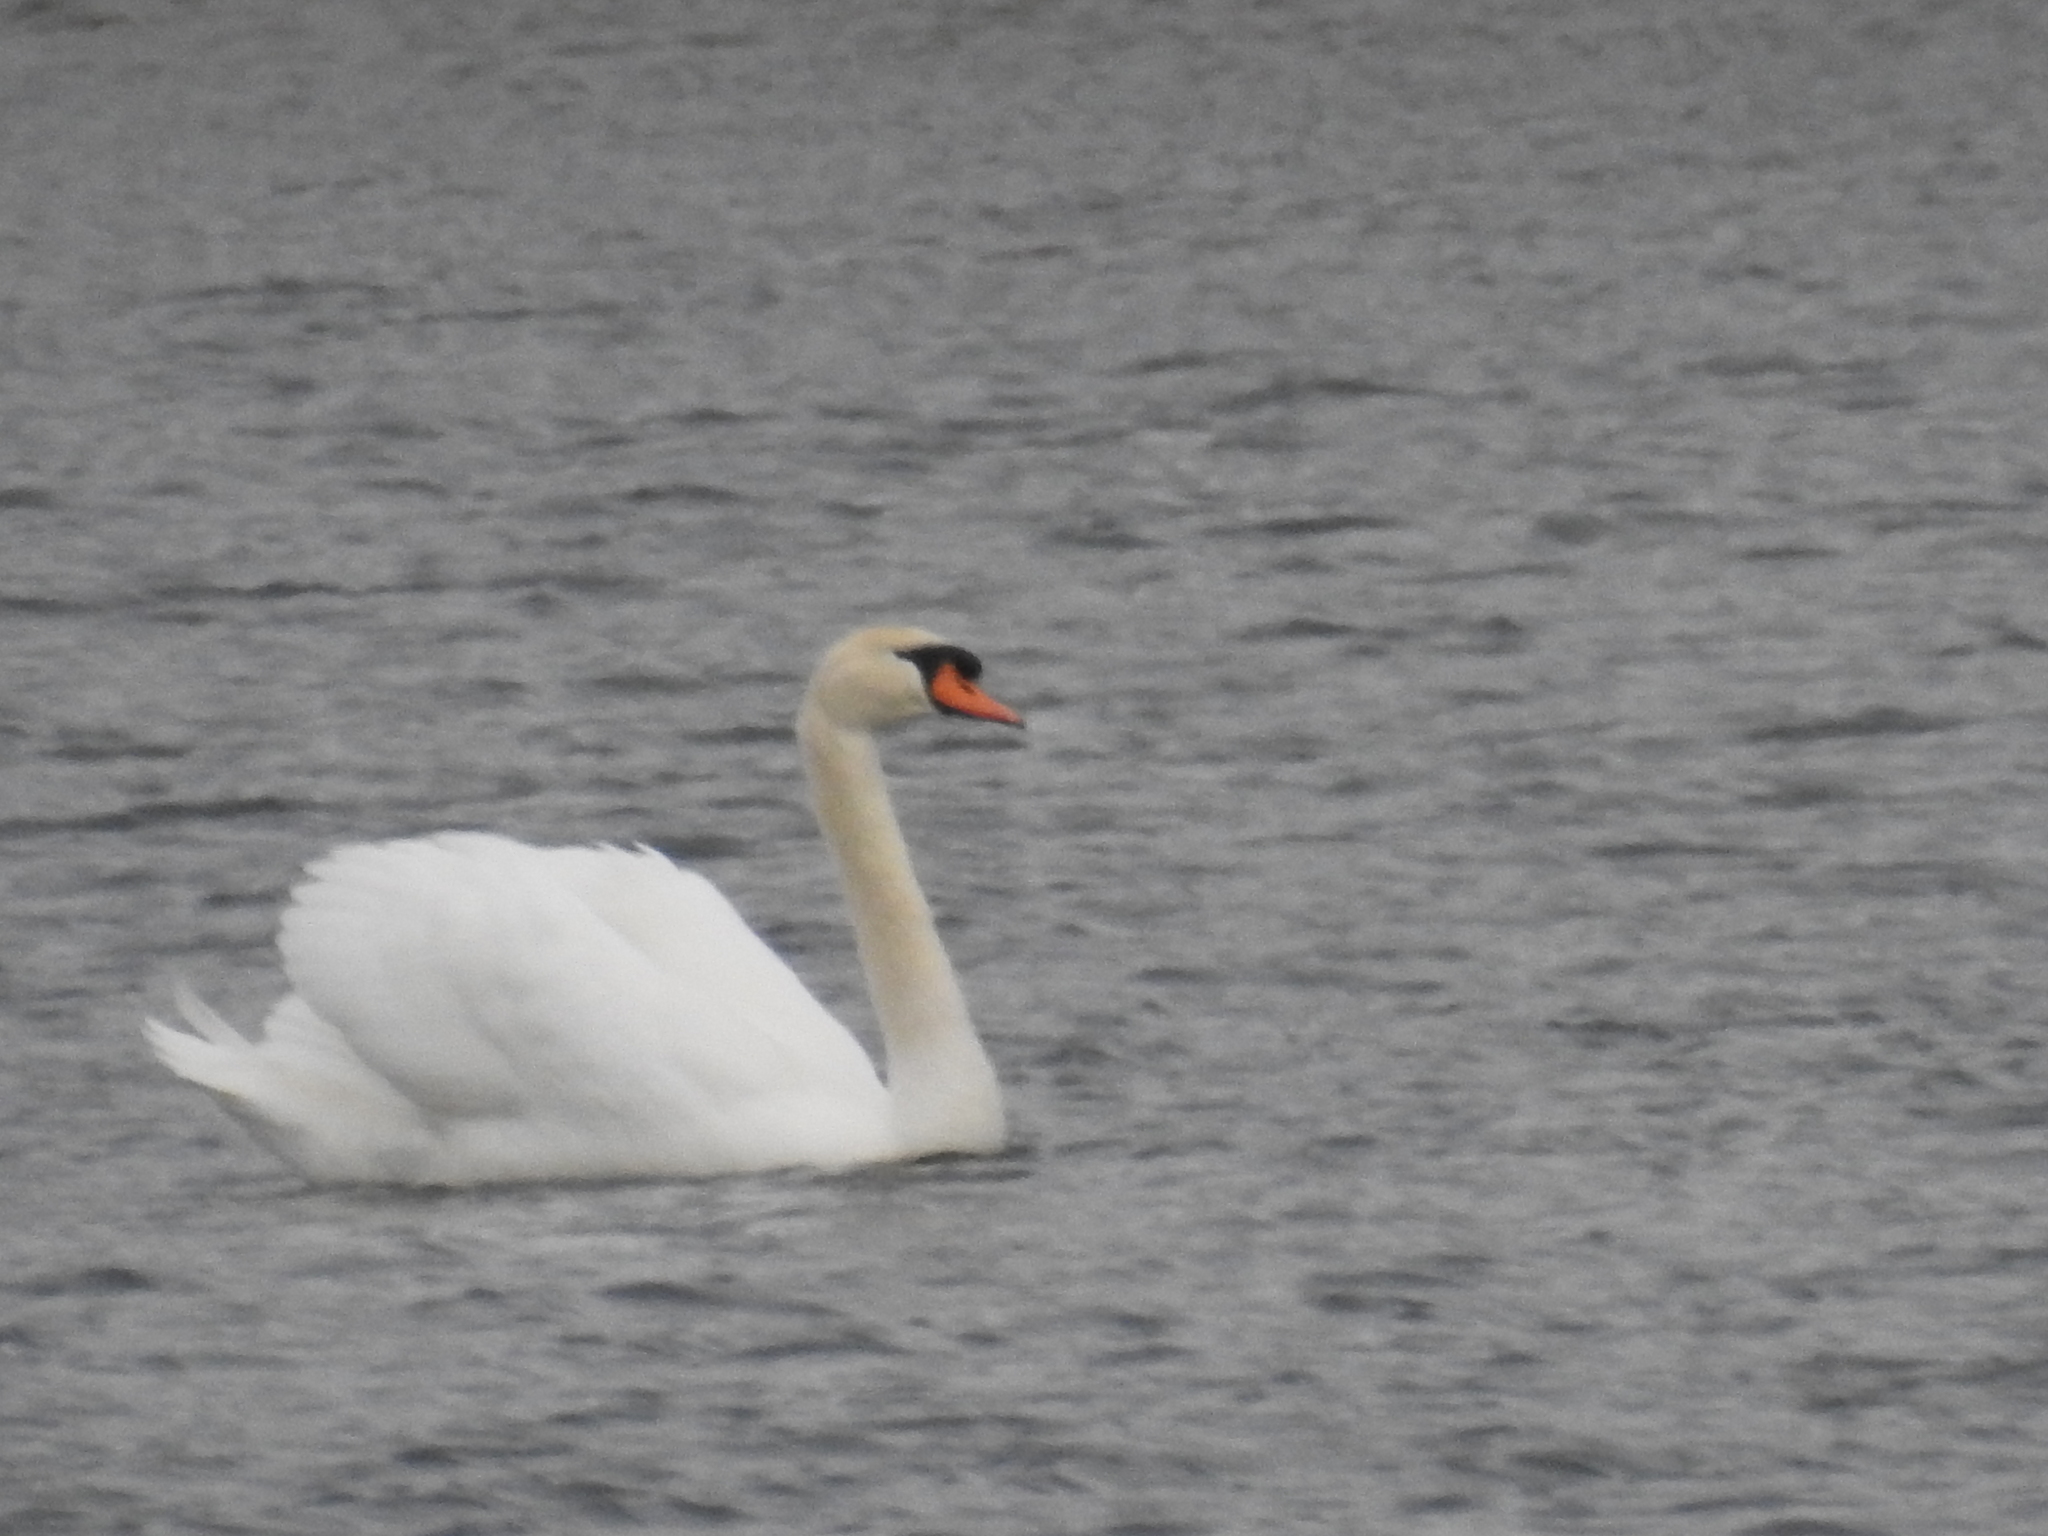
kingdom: Animalia
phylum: Chordata
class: Aves
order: Anseriformes
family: Anatidae
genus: Cygnus
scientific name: Cygnus olor
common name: Mute swan
